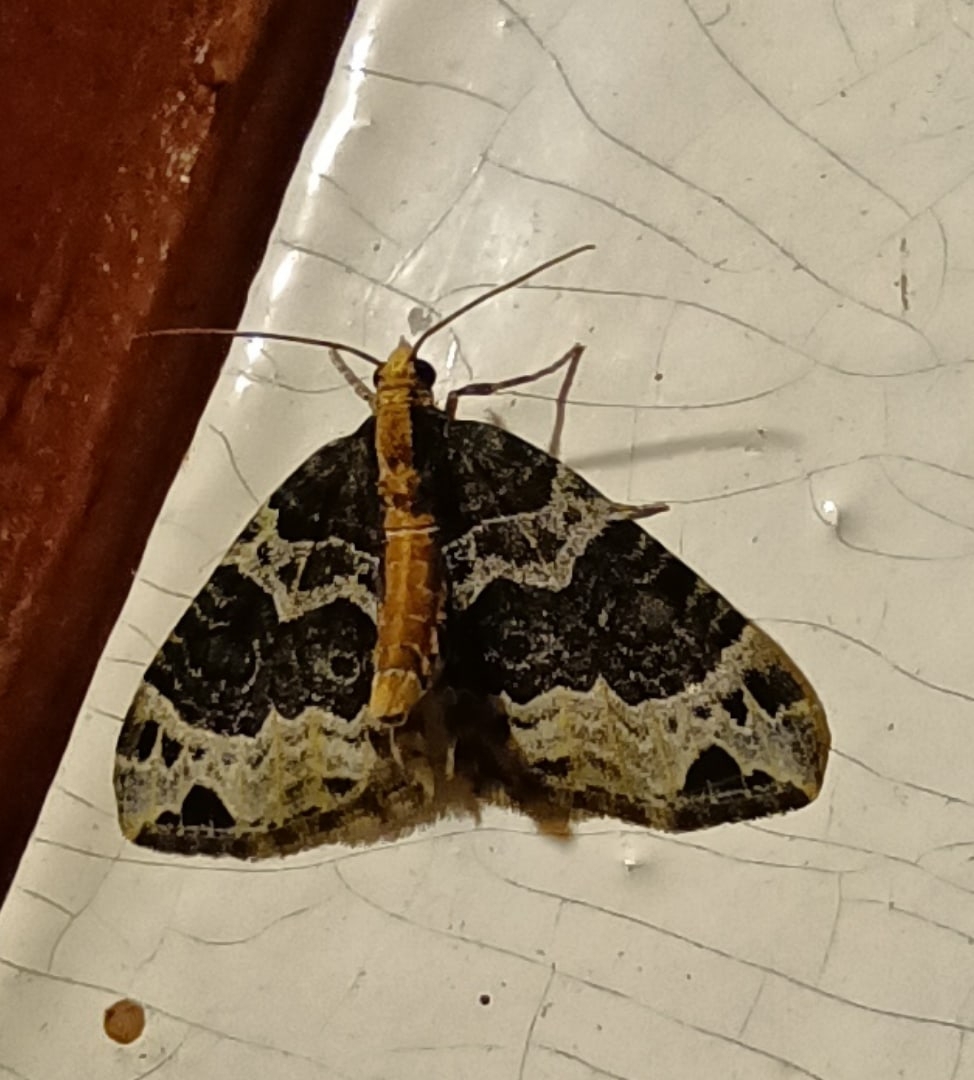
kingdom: Animalia
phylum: Arthropoda
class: Insecta
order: Lepidoptera
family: Geometridae
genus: Ecliptopera
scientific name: Ecliptopera capitata
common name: Yellow-headed phoenix
